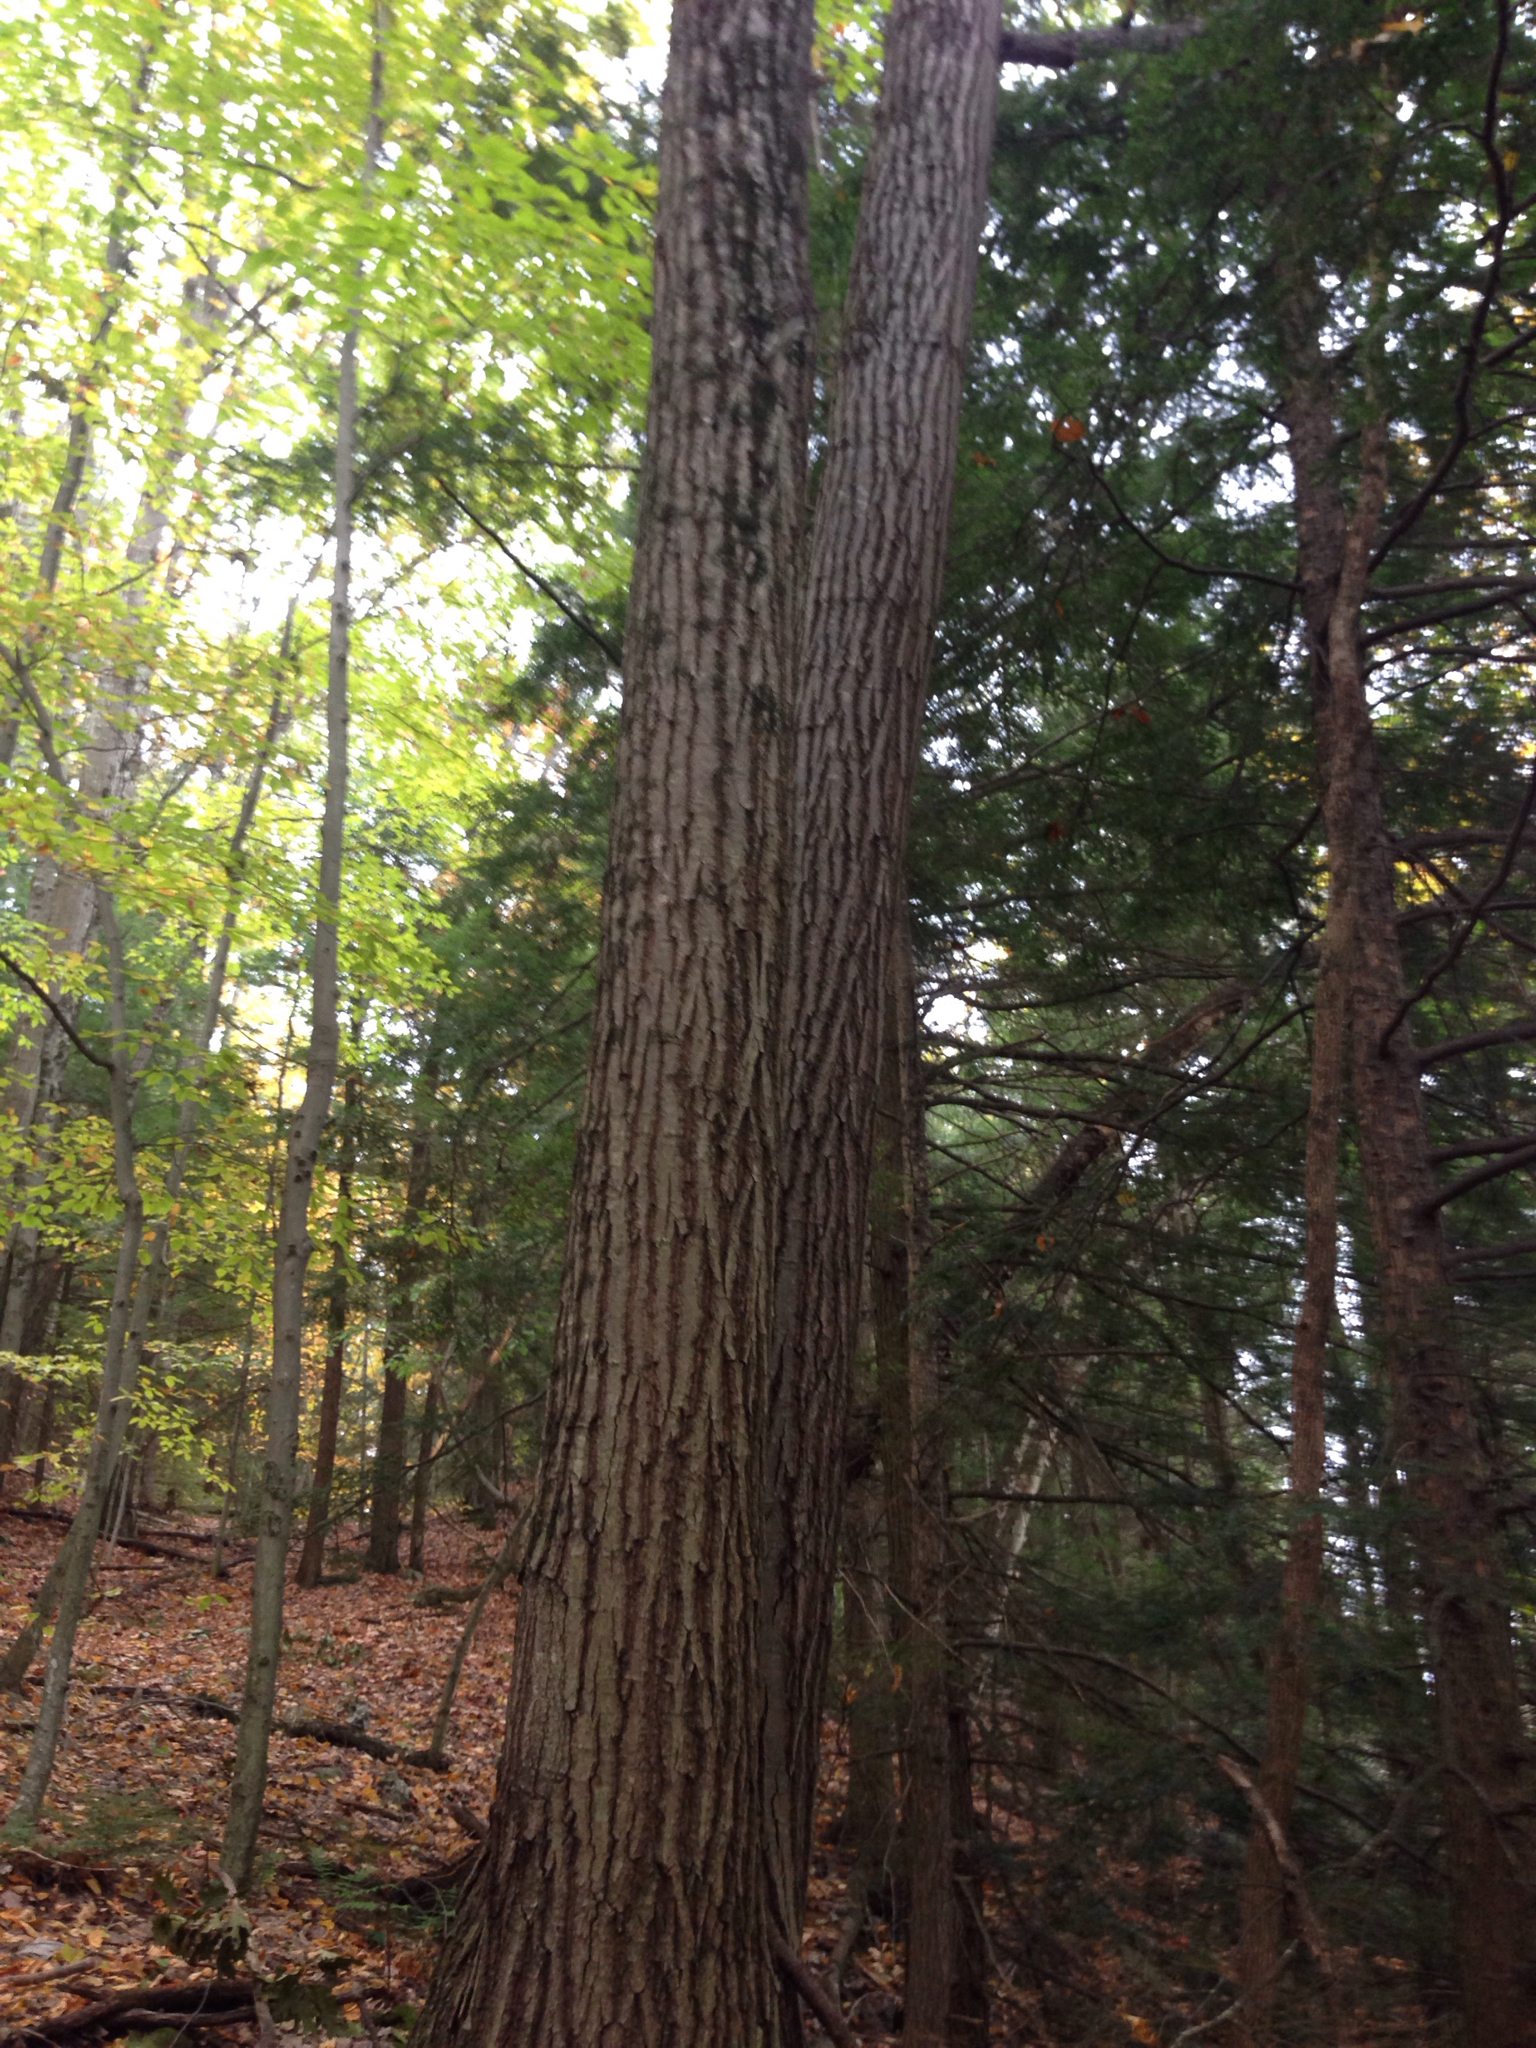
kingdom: Plantae
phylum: Tracheophyta
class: Magnoliopsida
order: Fagales
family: Fagaceae
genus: Quercus
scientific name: Quercus rubra
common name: Red oak
